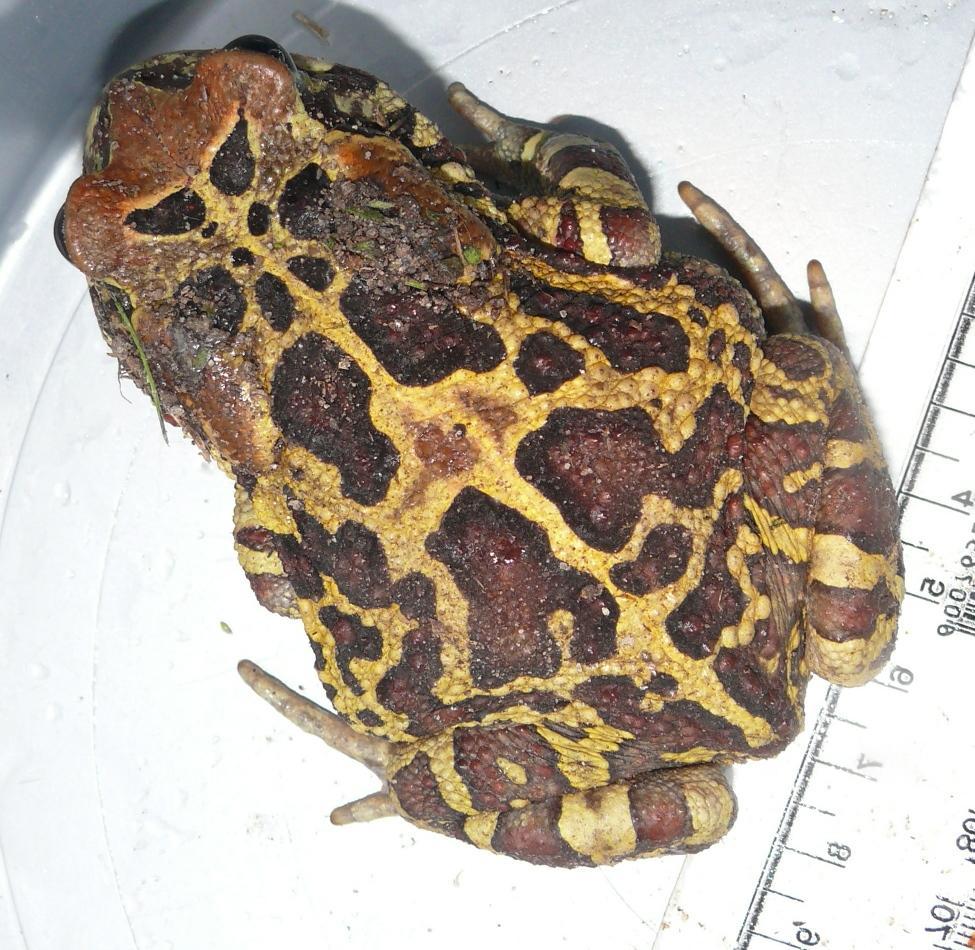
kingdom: Animalia
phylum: Chordata
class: Amphibia
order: Anura
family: Bufonidae
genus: Sclerophrys
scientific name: Sclerophrys pantherina
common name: Panther toad
